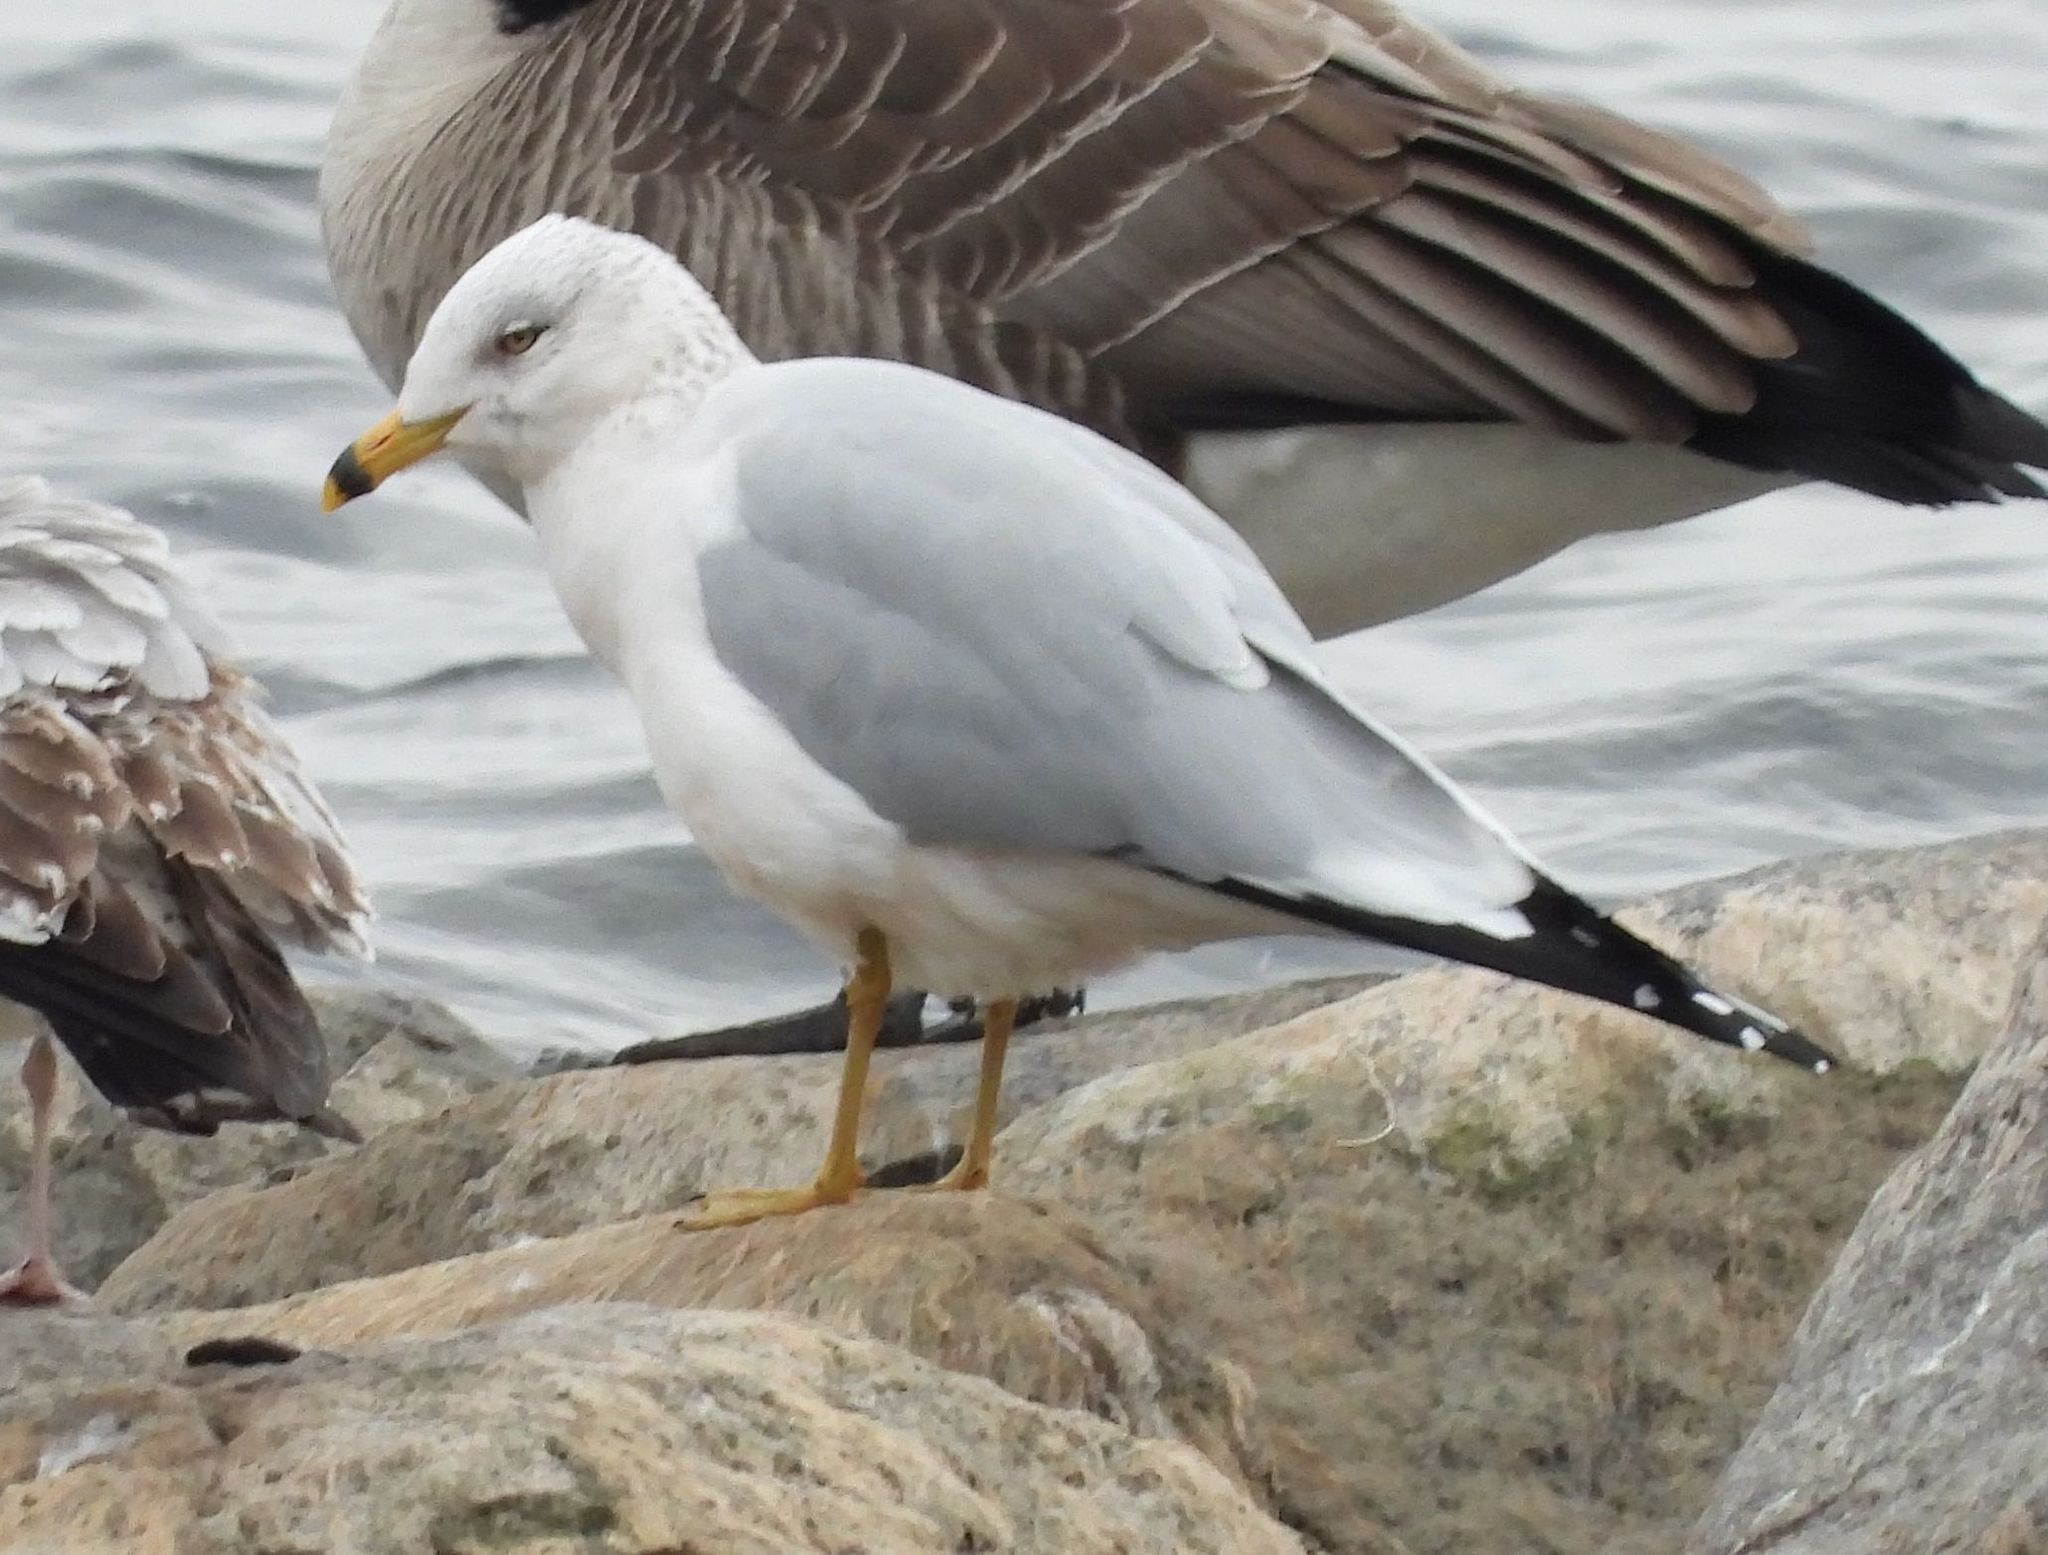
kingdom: Animalia
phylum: Chordata
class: Aves
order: Charadriiformes
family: Laridae
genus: Larus
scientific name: Larus delawarensis
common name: Ring-billed gull
